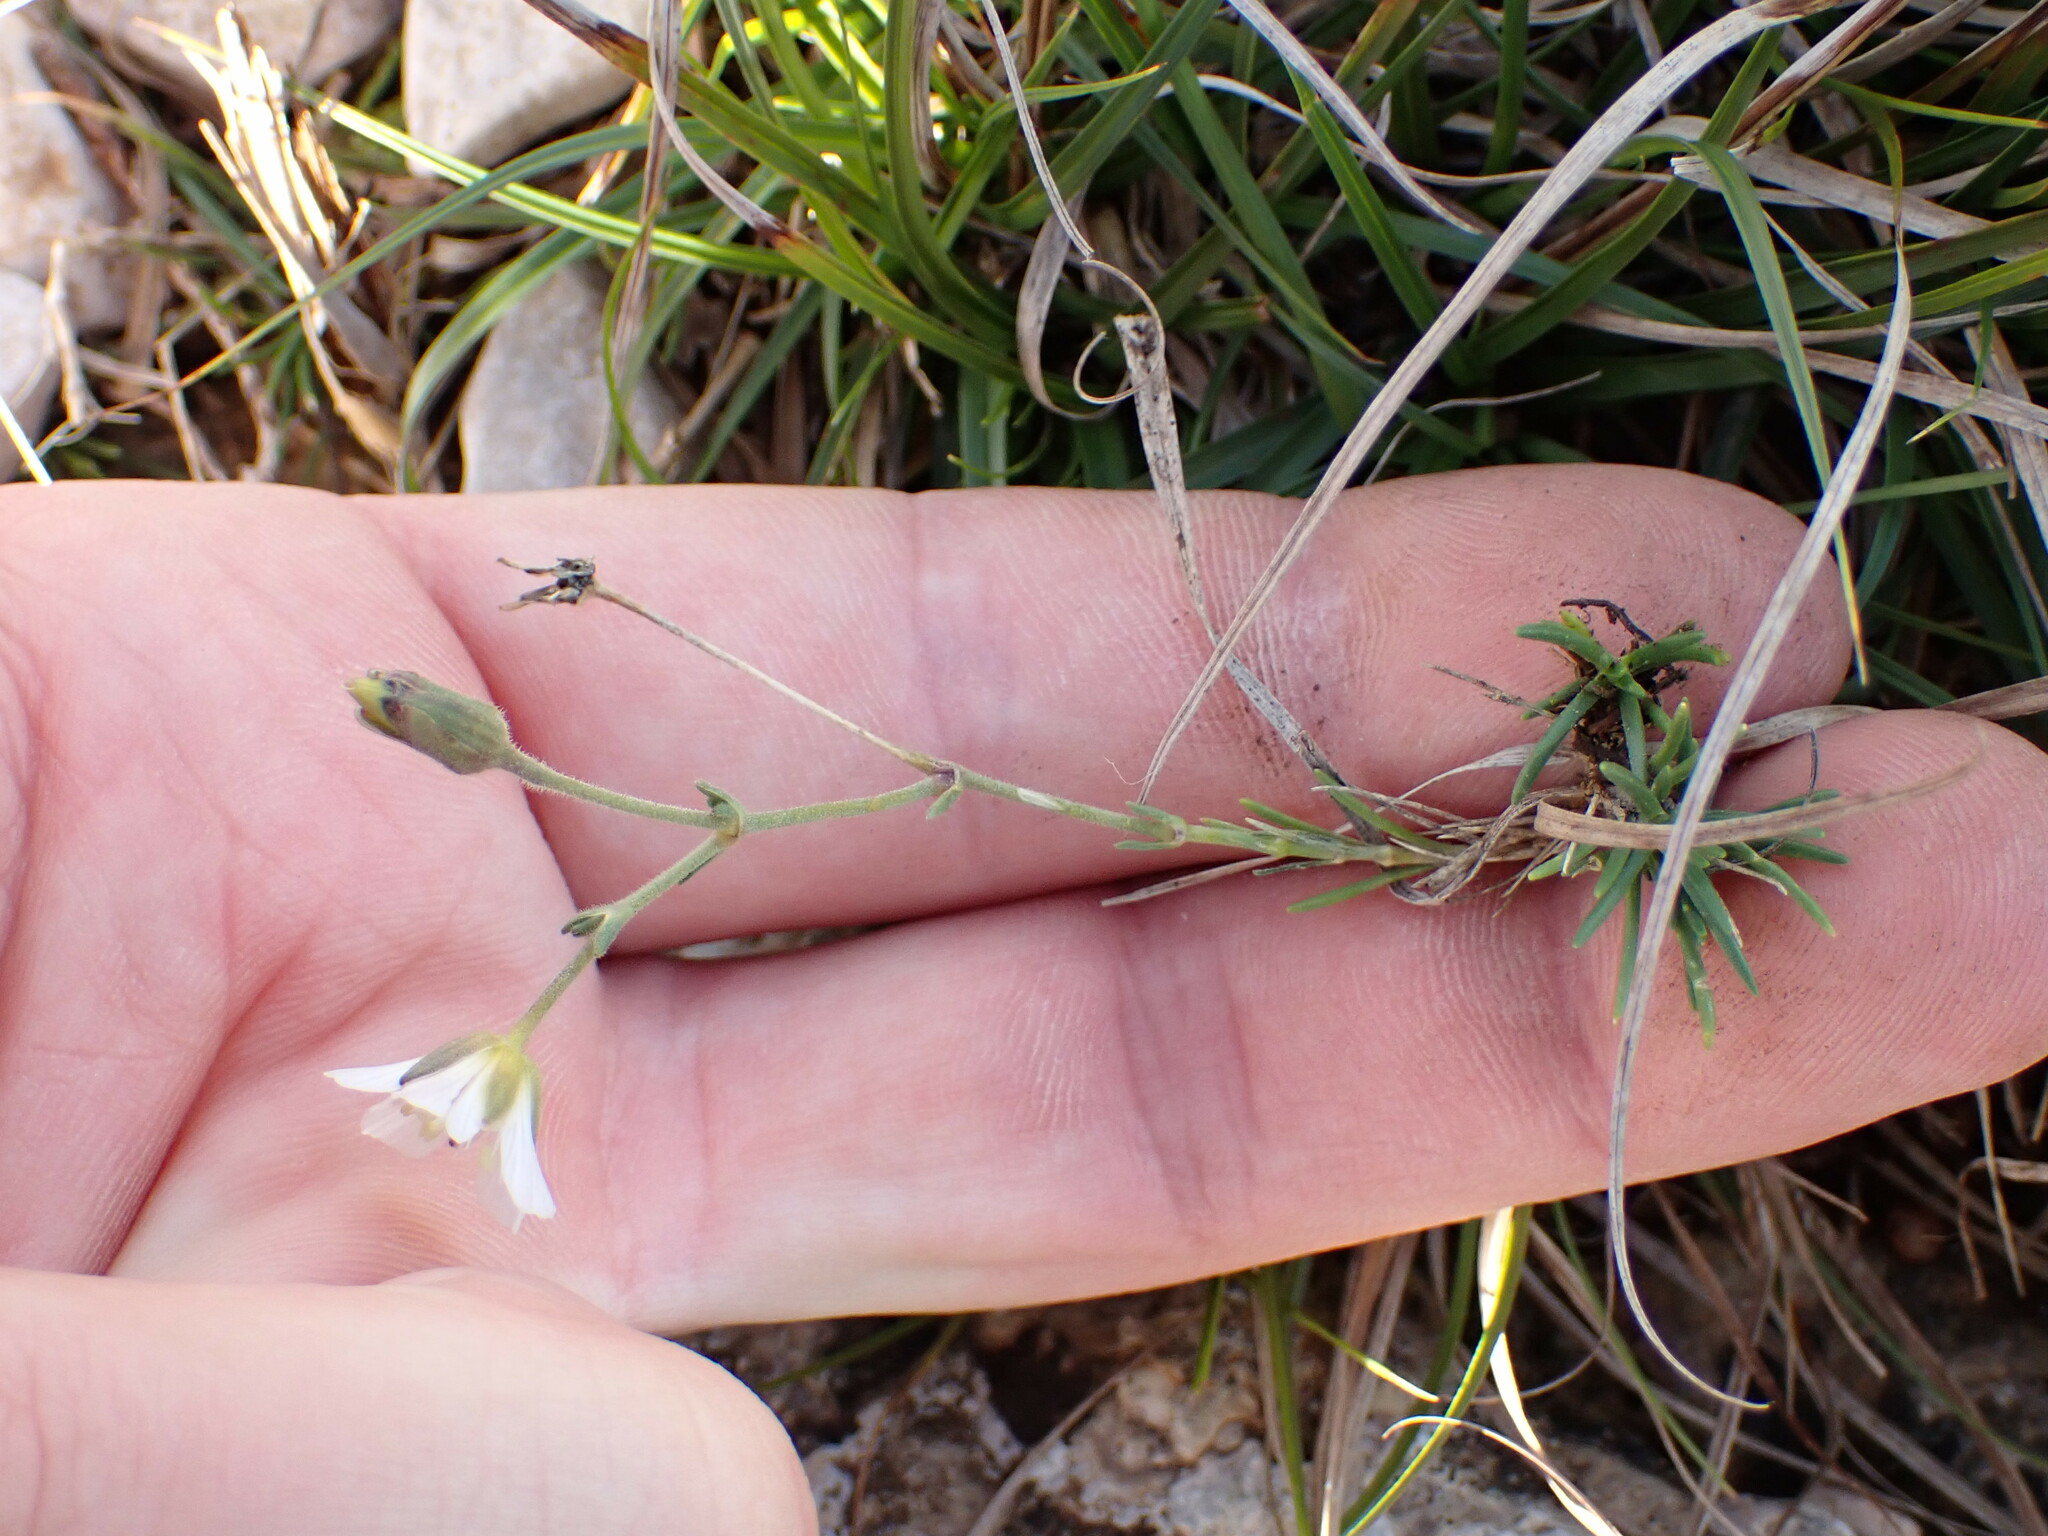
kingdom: Plantae
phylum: Tracheophyta
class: Magnoliopsida
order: Caryophyllales
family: Caryophyllaceae
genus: Cherleria
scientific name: Cherleria capillacea
